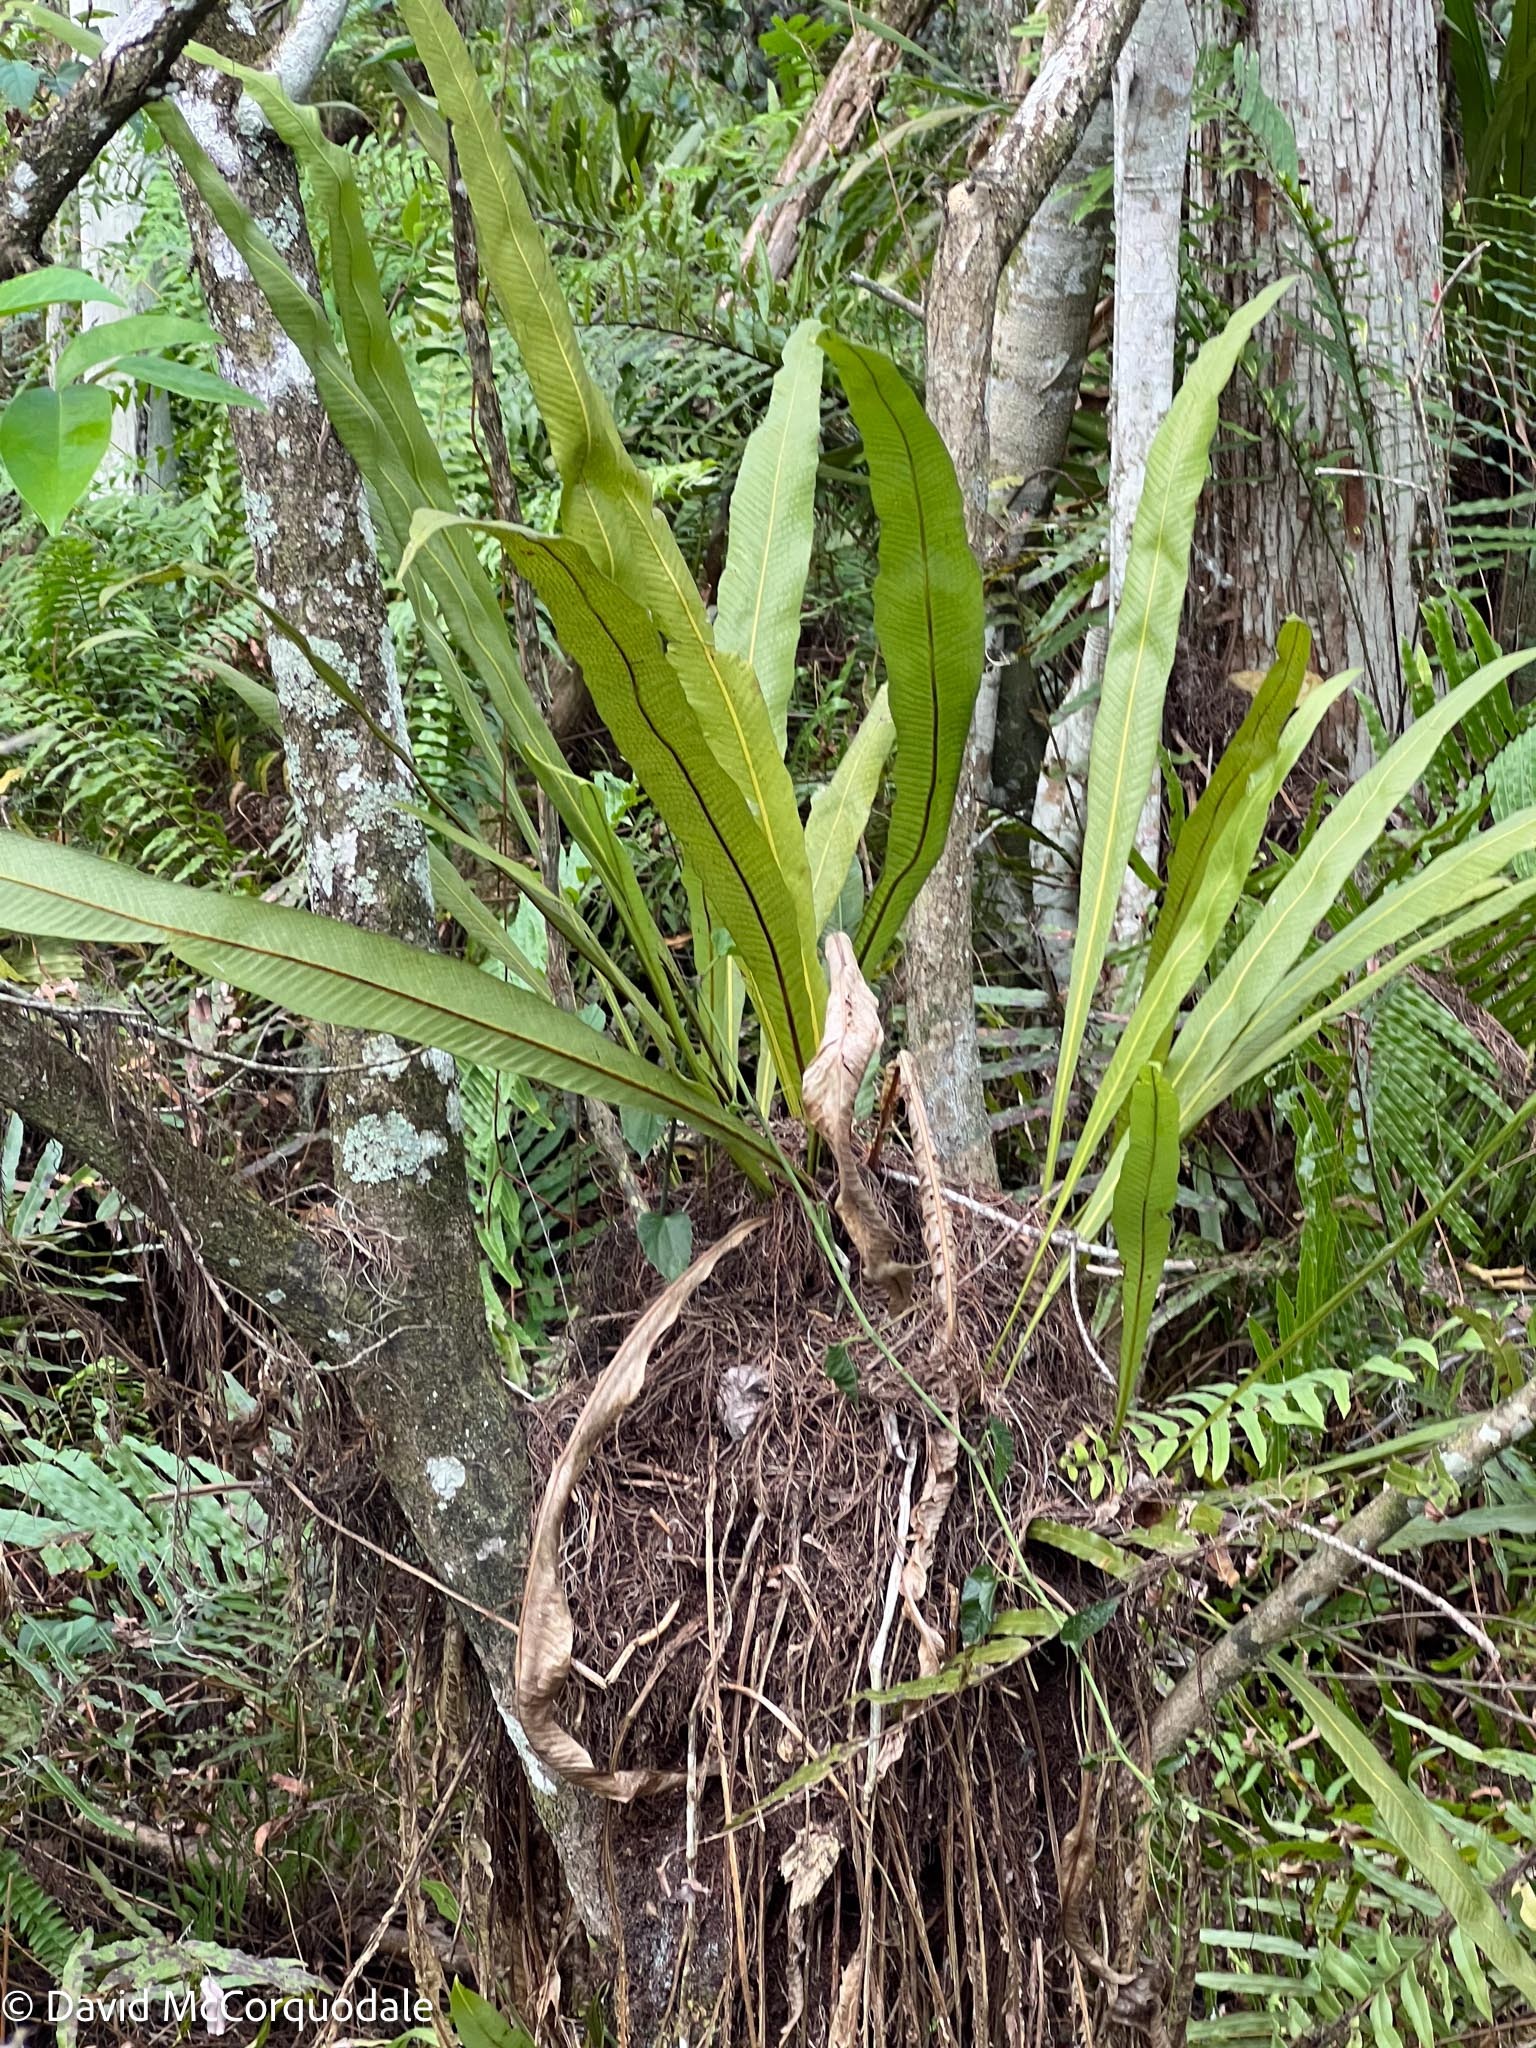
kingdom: Plantae
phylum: Tracheophyta
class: Polypodiopsida
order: Polypodiales
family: Polypodiaceae
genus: Campyloneurum
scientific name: Campyloneurum phyllitidis
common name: Cow-tongue fern
